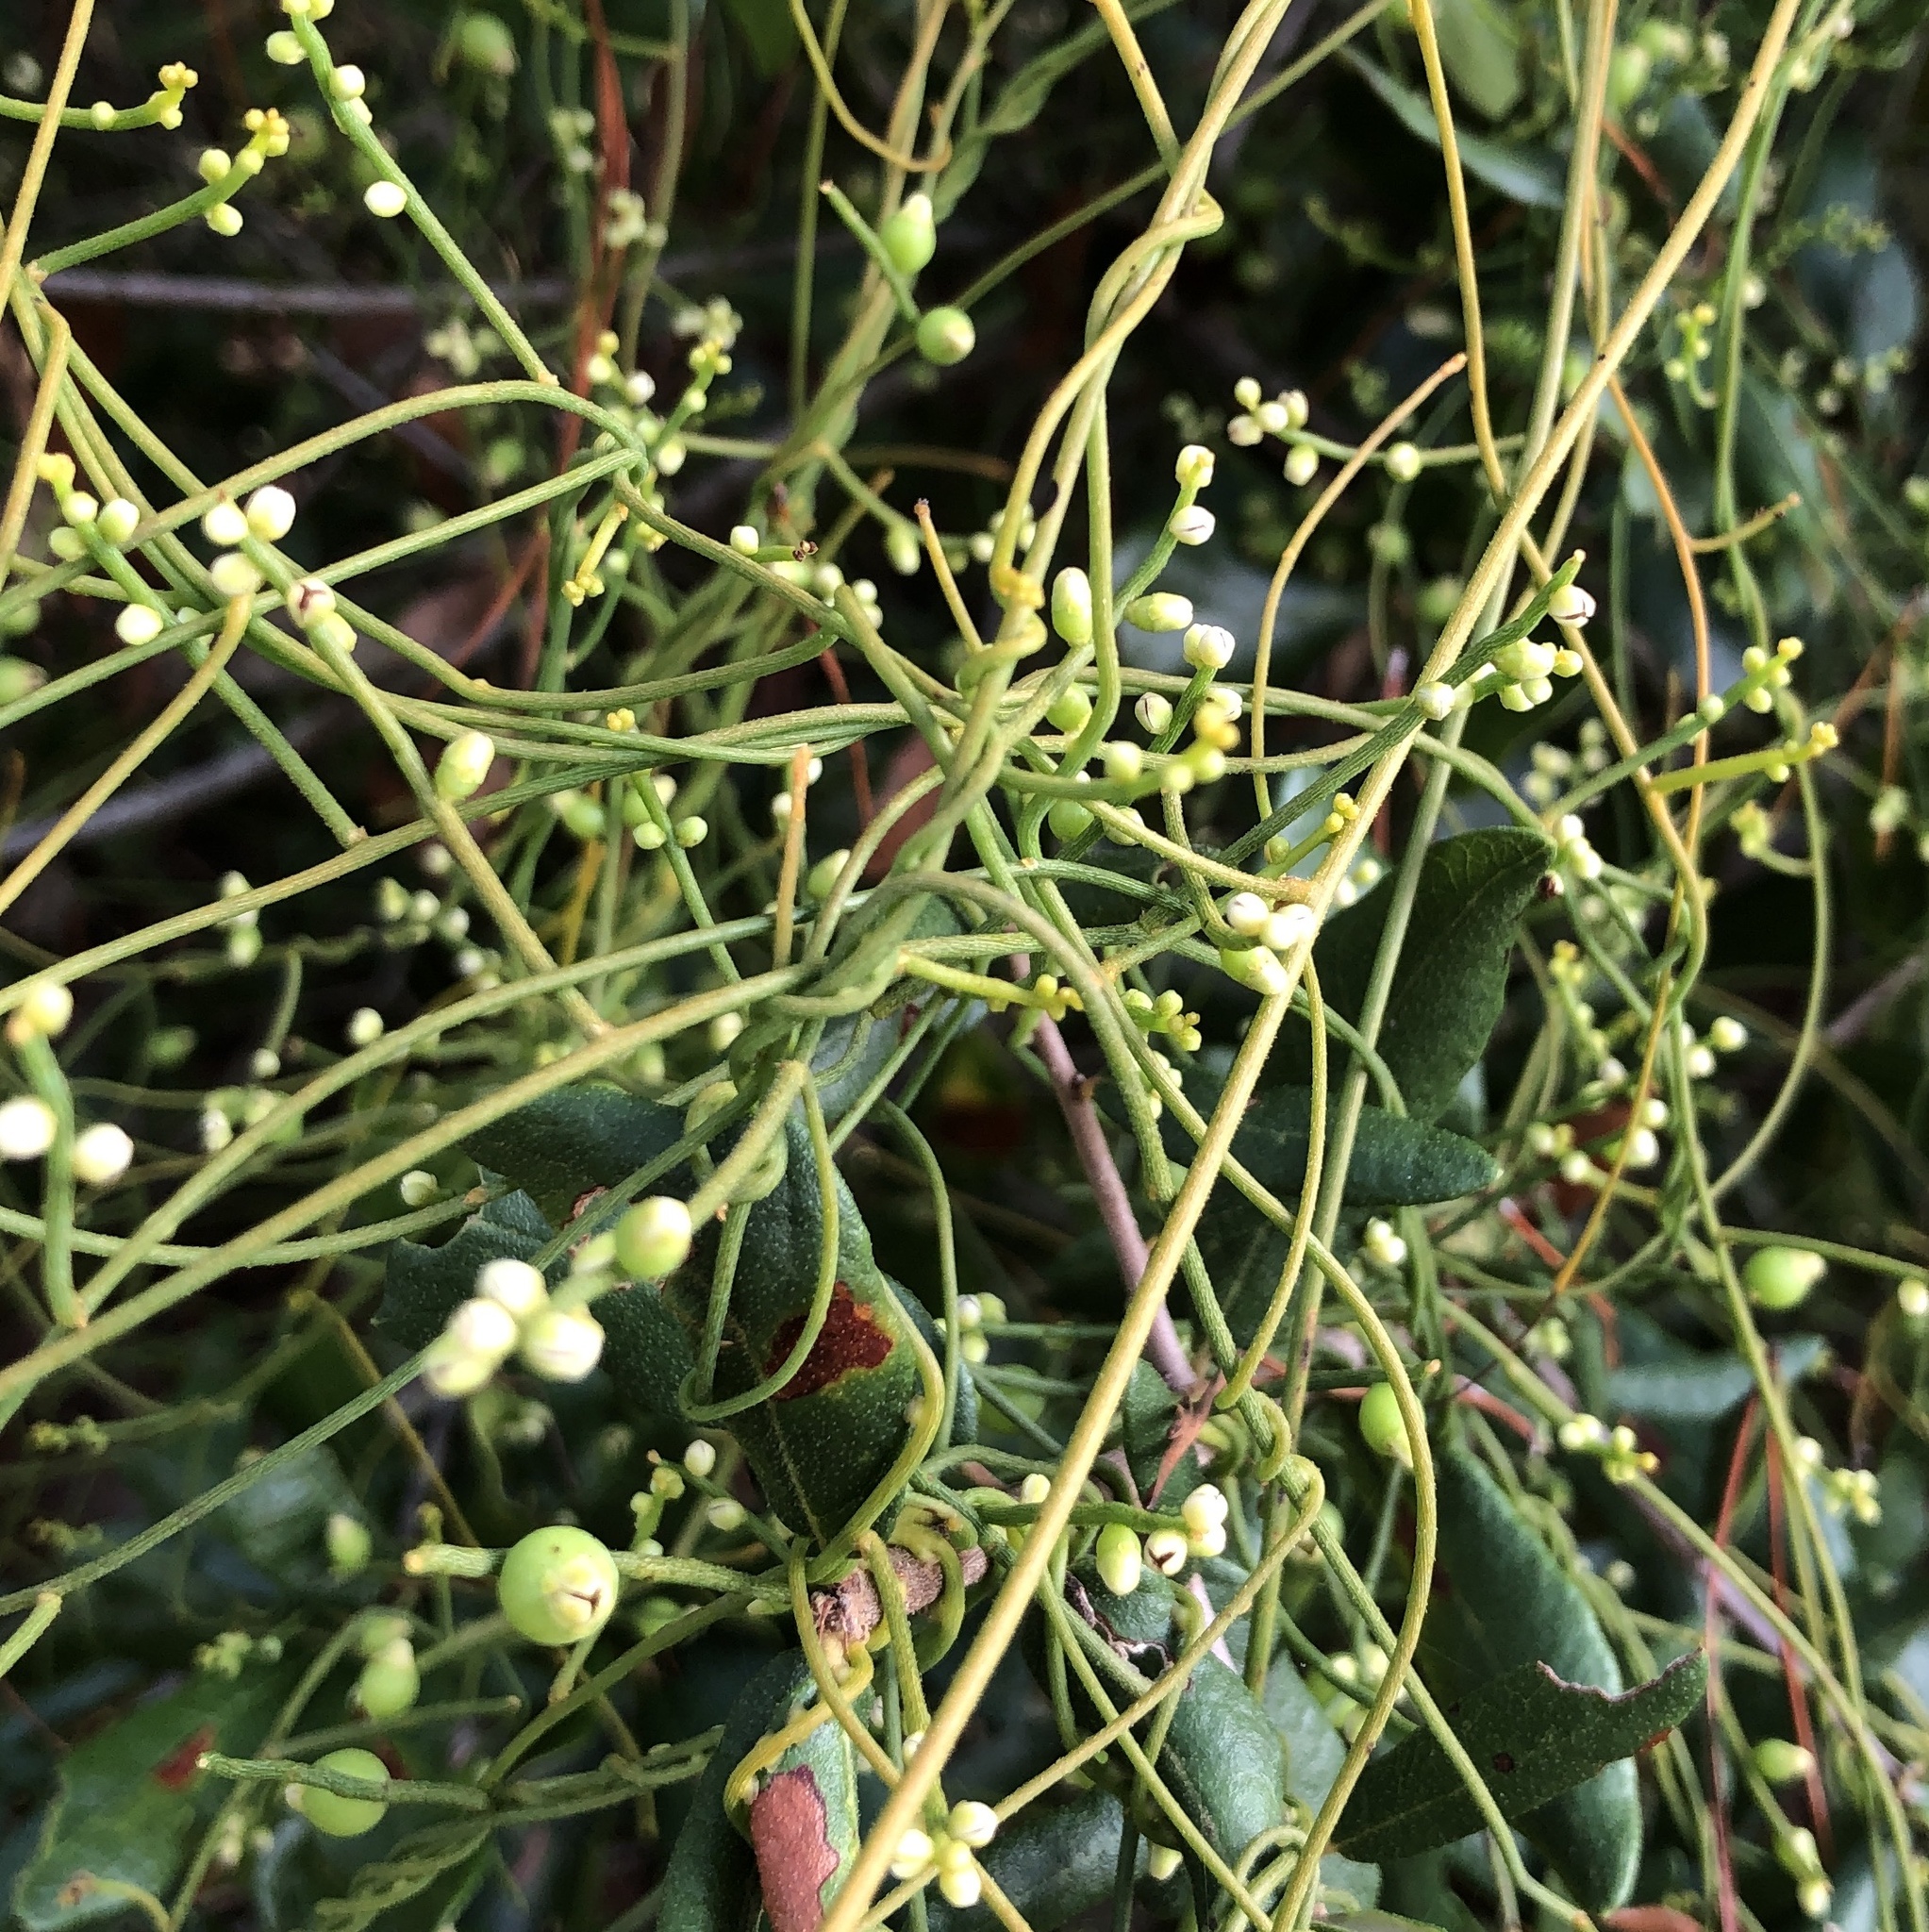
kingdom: Plantae
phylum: Tracheophyta
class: Magnoliopsida
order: Laurales
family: Lauraceae
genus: Cassytha
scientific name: Cassytha filiformis
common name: Dodder-laurel
